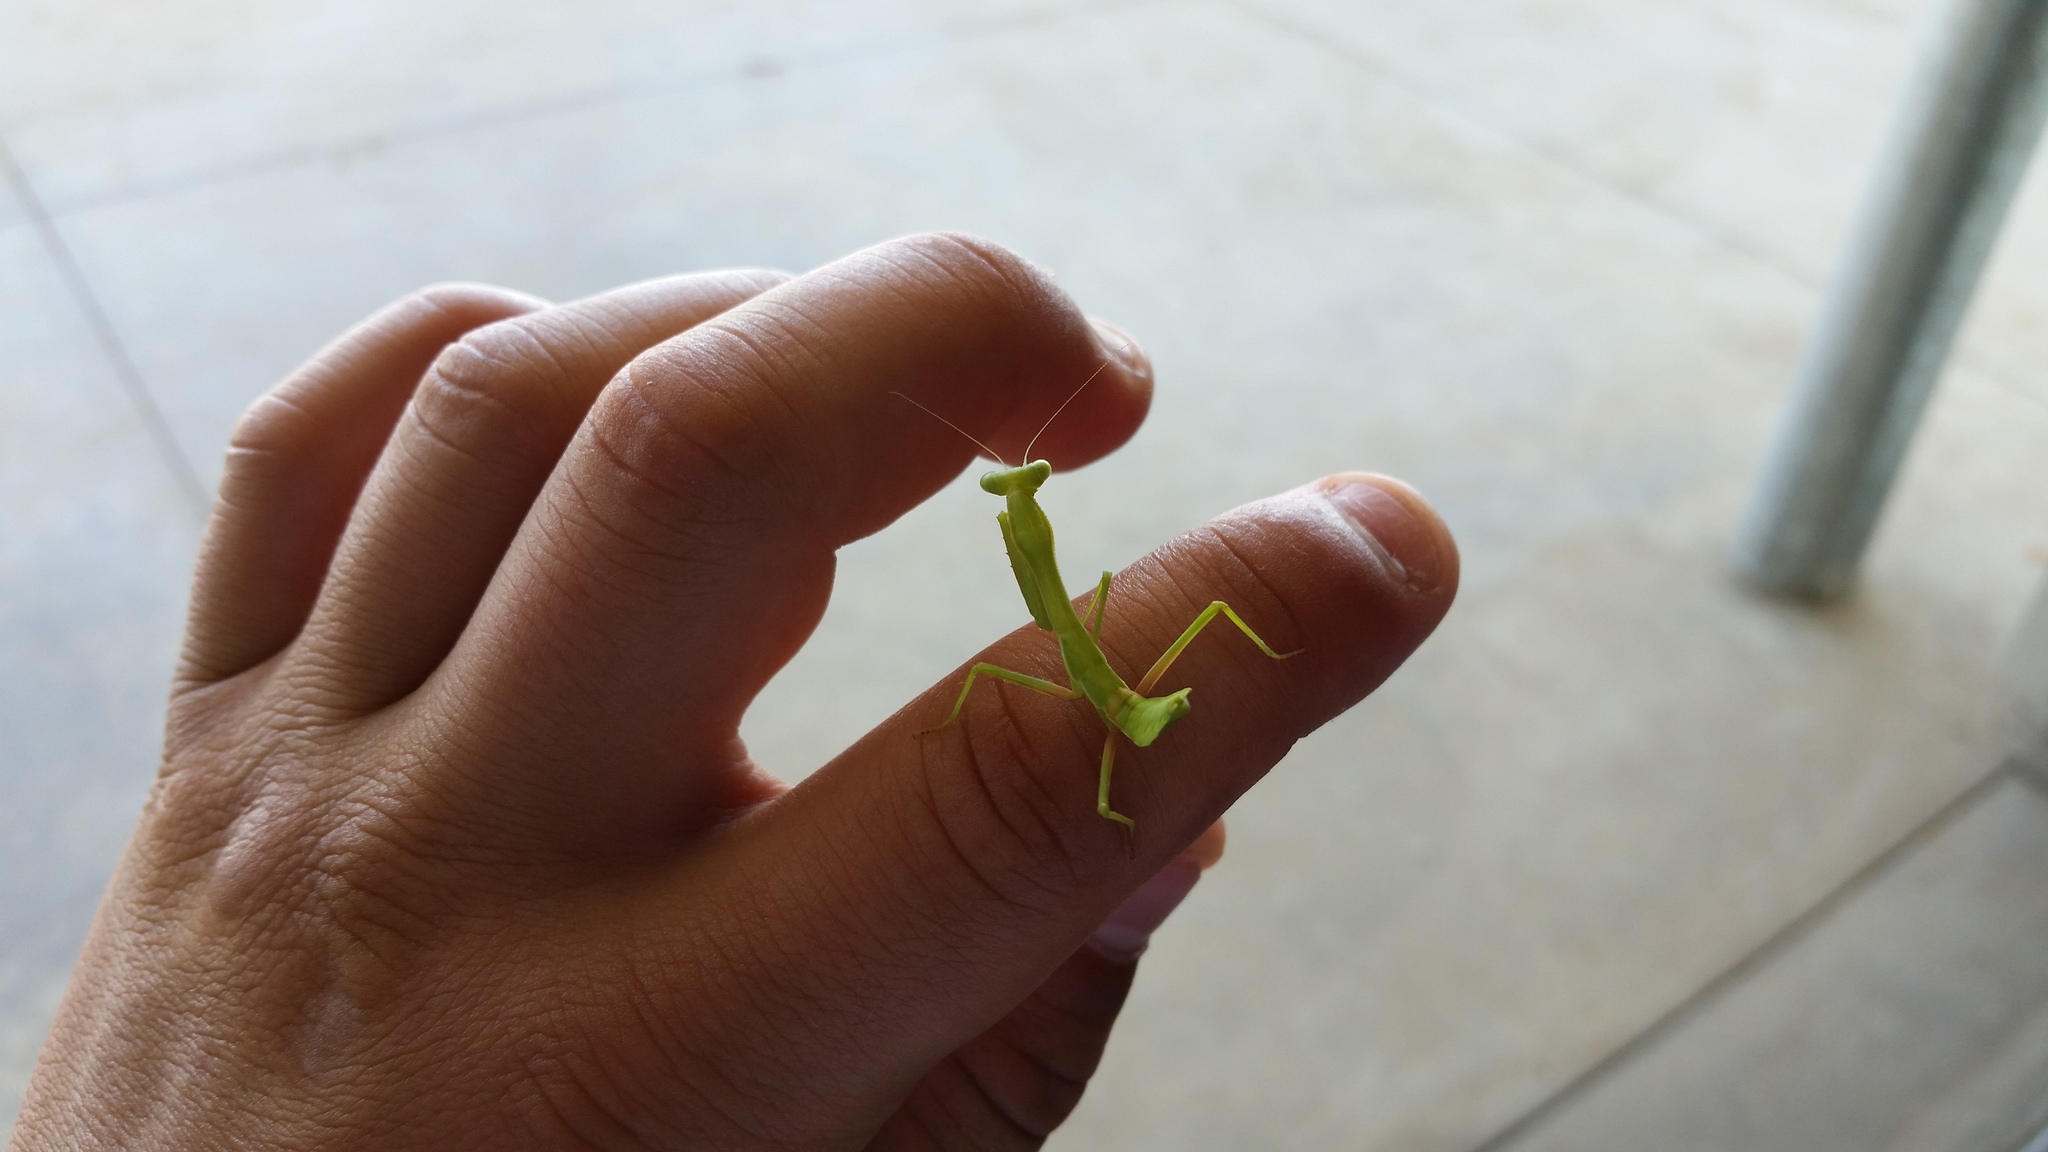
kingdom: Animalia
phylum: Arthropoda
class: Insecta
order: Mantodea
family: Mantidae
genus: Stagmomantis
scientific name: Stagmomantis californica
